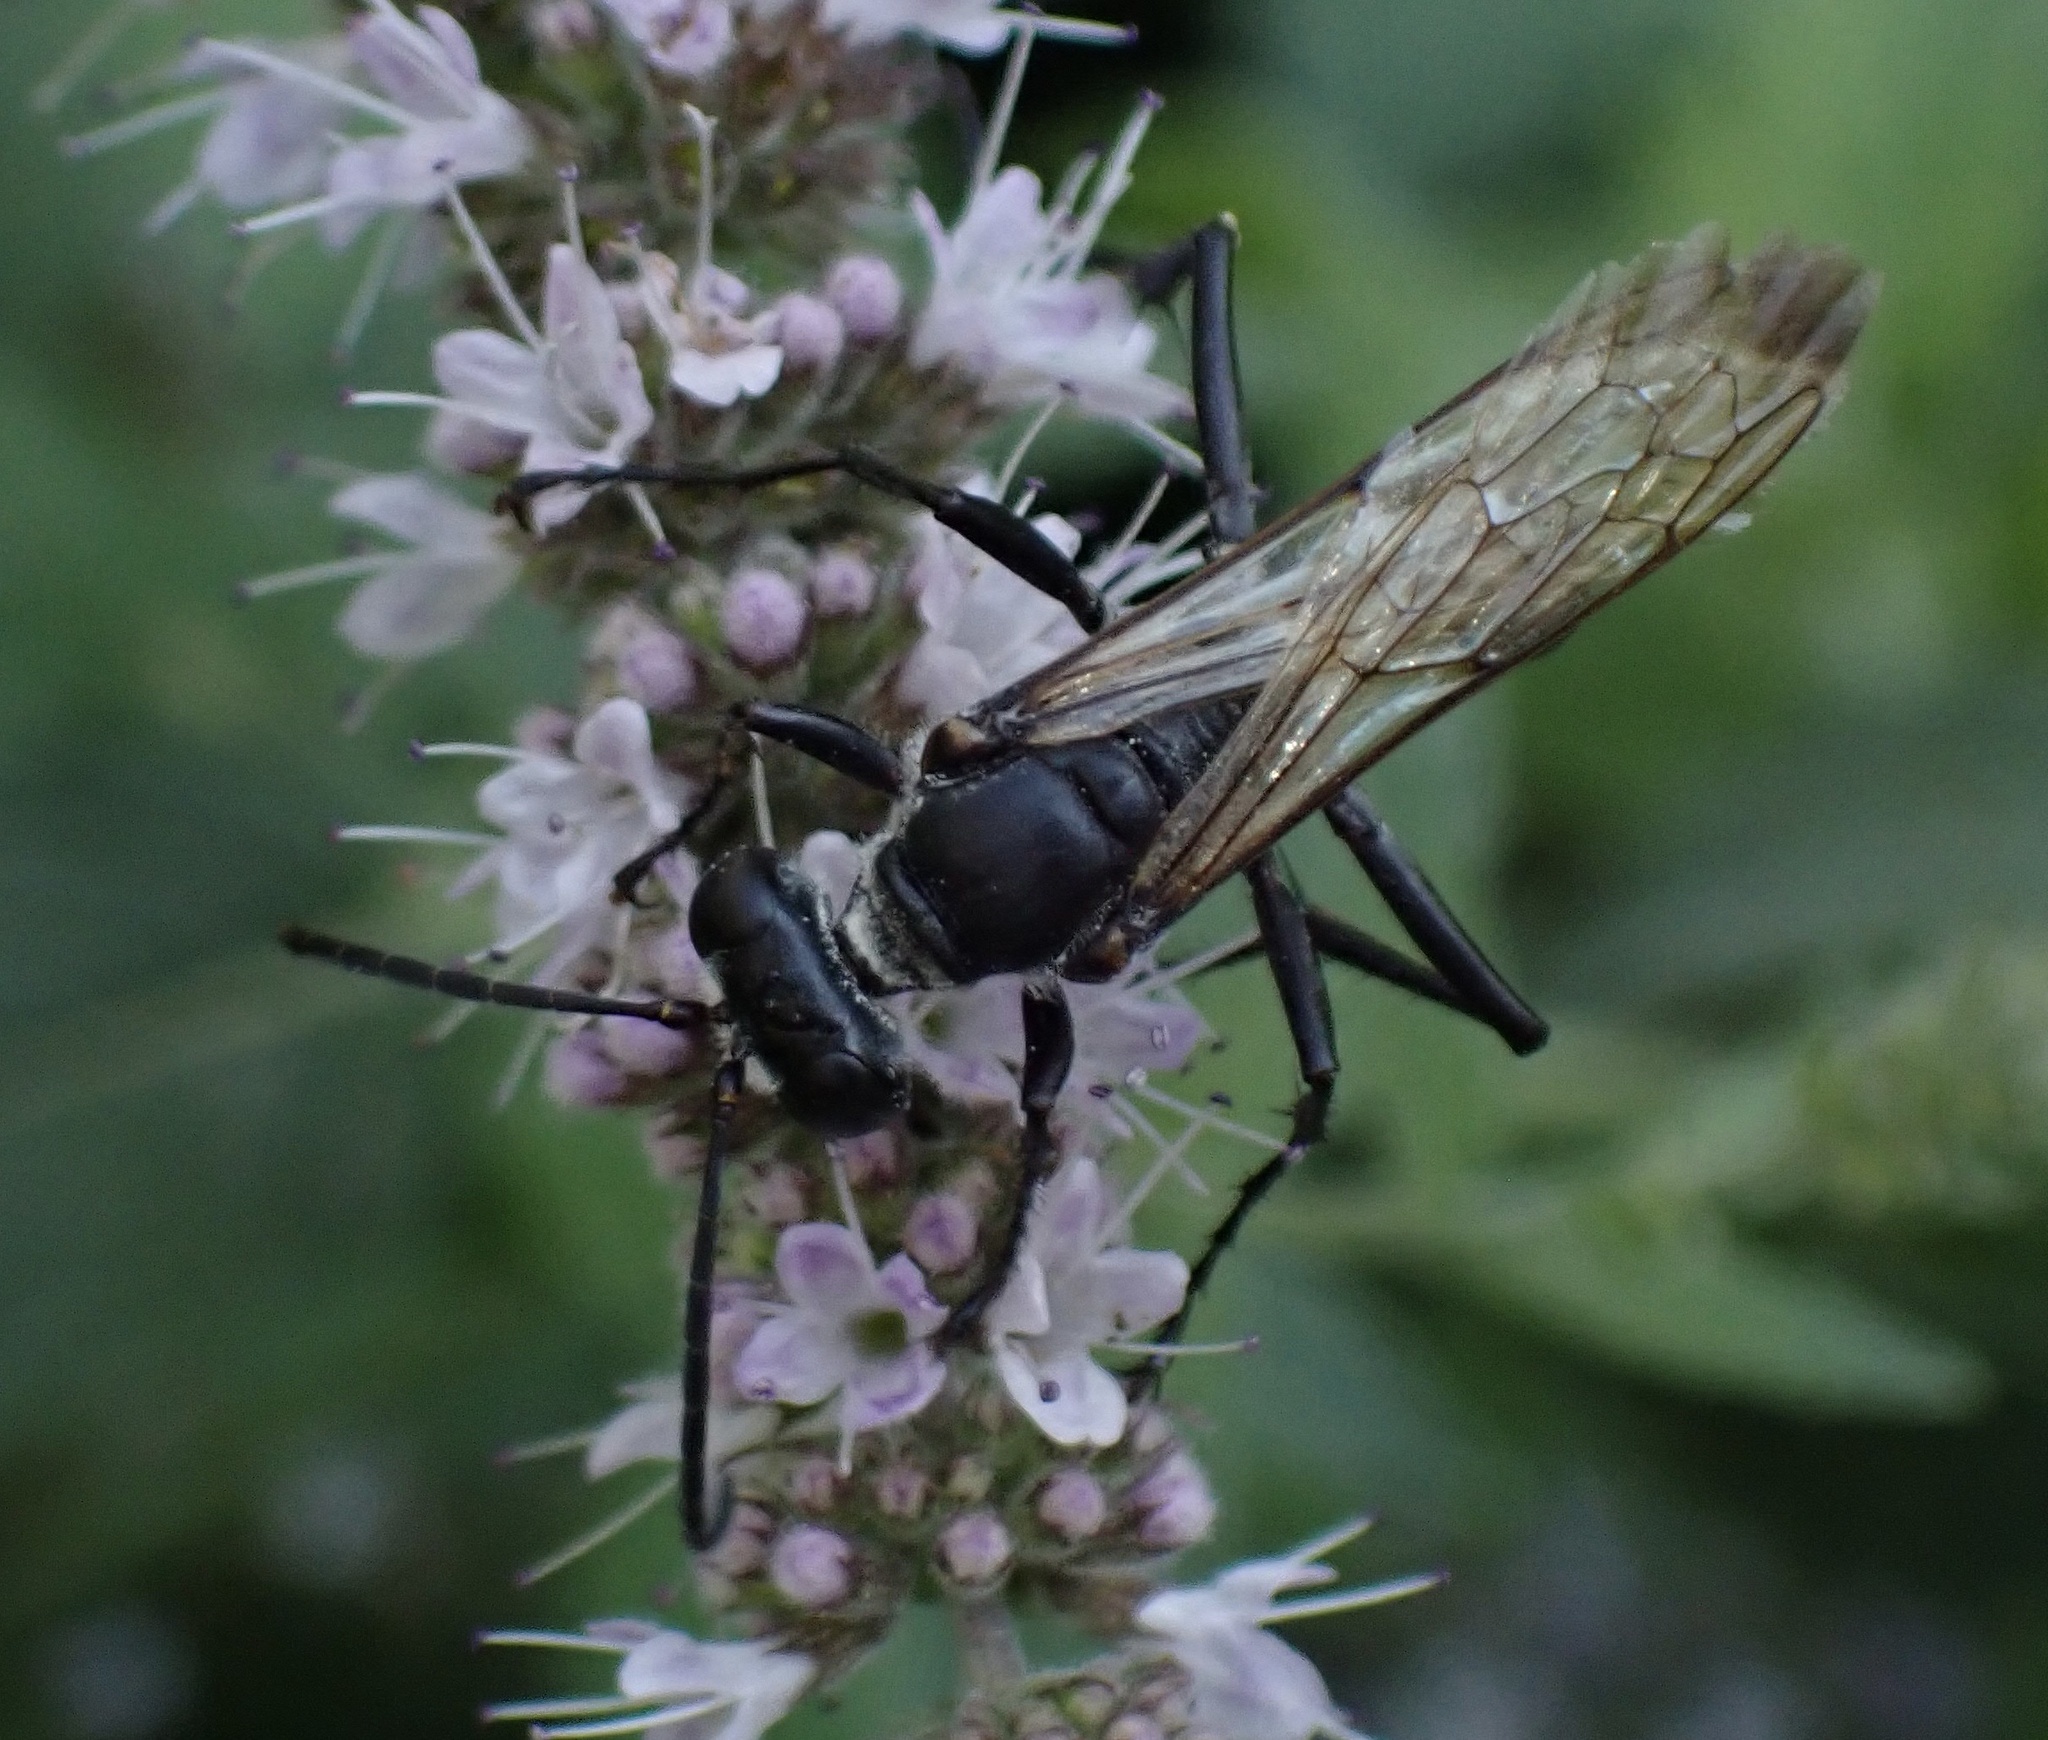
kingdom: Animalia
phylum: Arthropoda
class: Insecta
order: Hymenoptera
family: Sphecidae
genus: Sphex
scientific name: Sphex pruinosus
